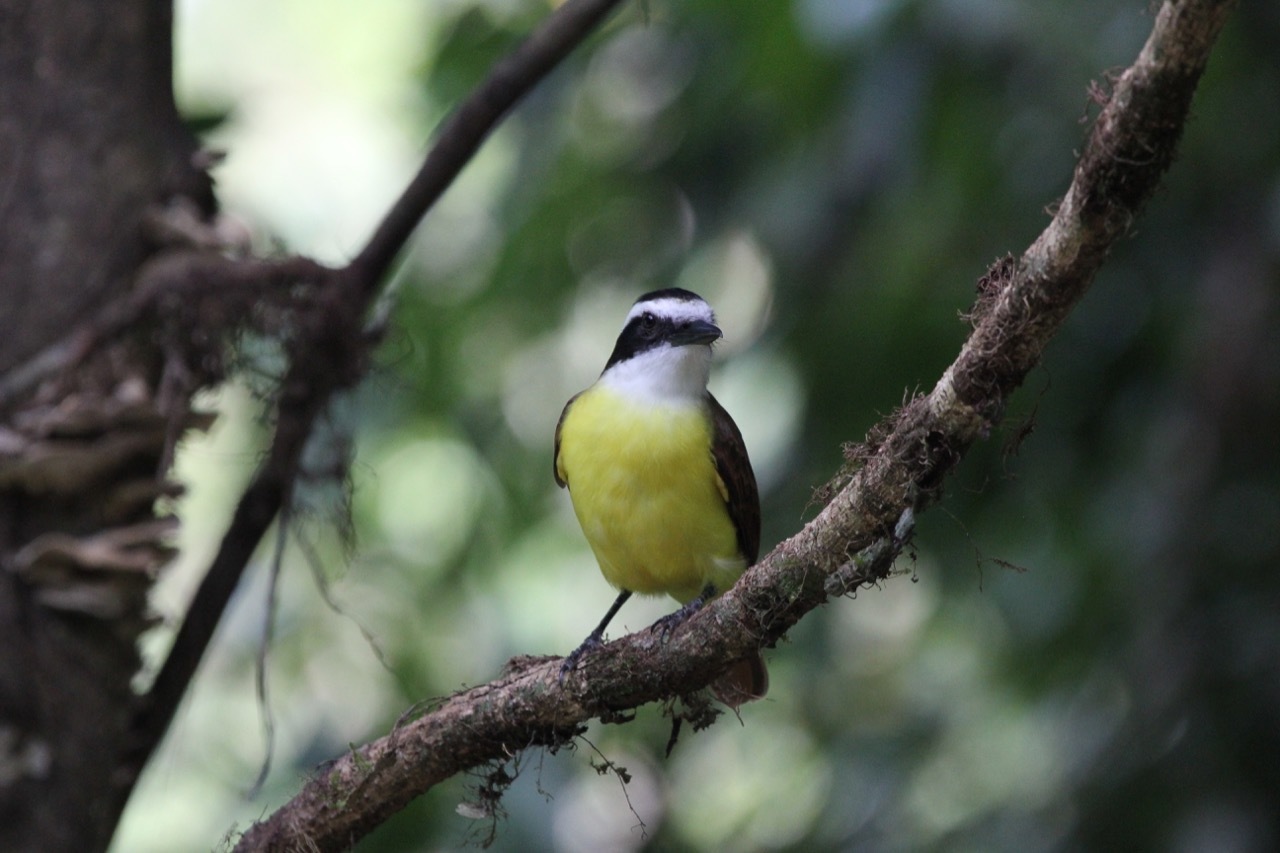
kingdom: Animalia
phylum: Chordata
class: Aves
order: Passeriformes
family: Tyrannidae
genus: Pitangus
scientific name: Pitangus sulphuratus
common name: Great kiskadee
